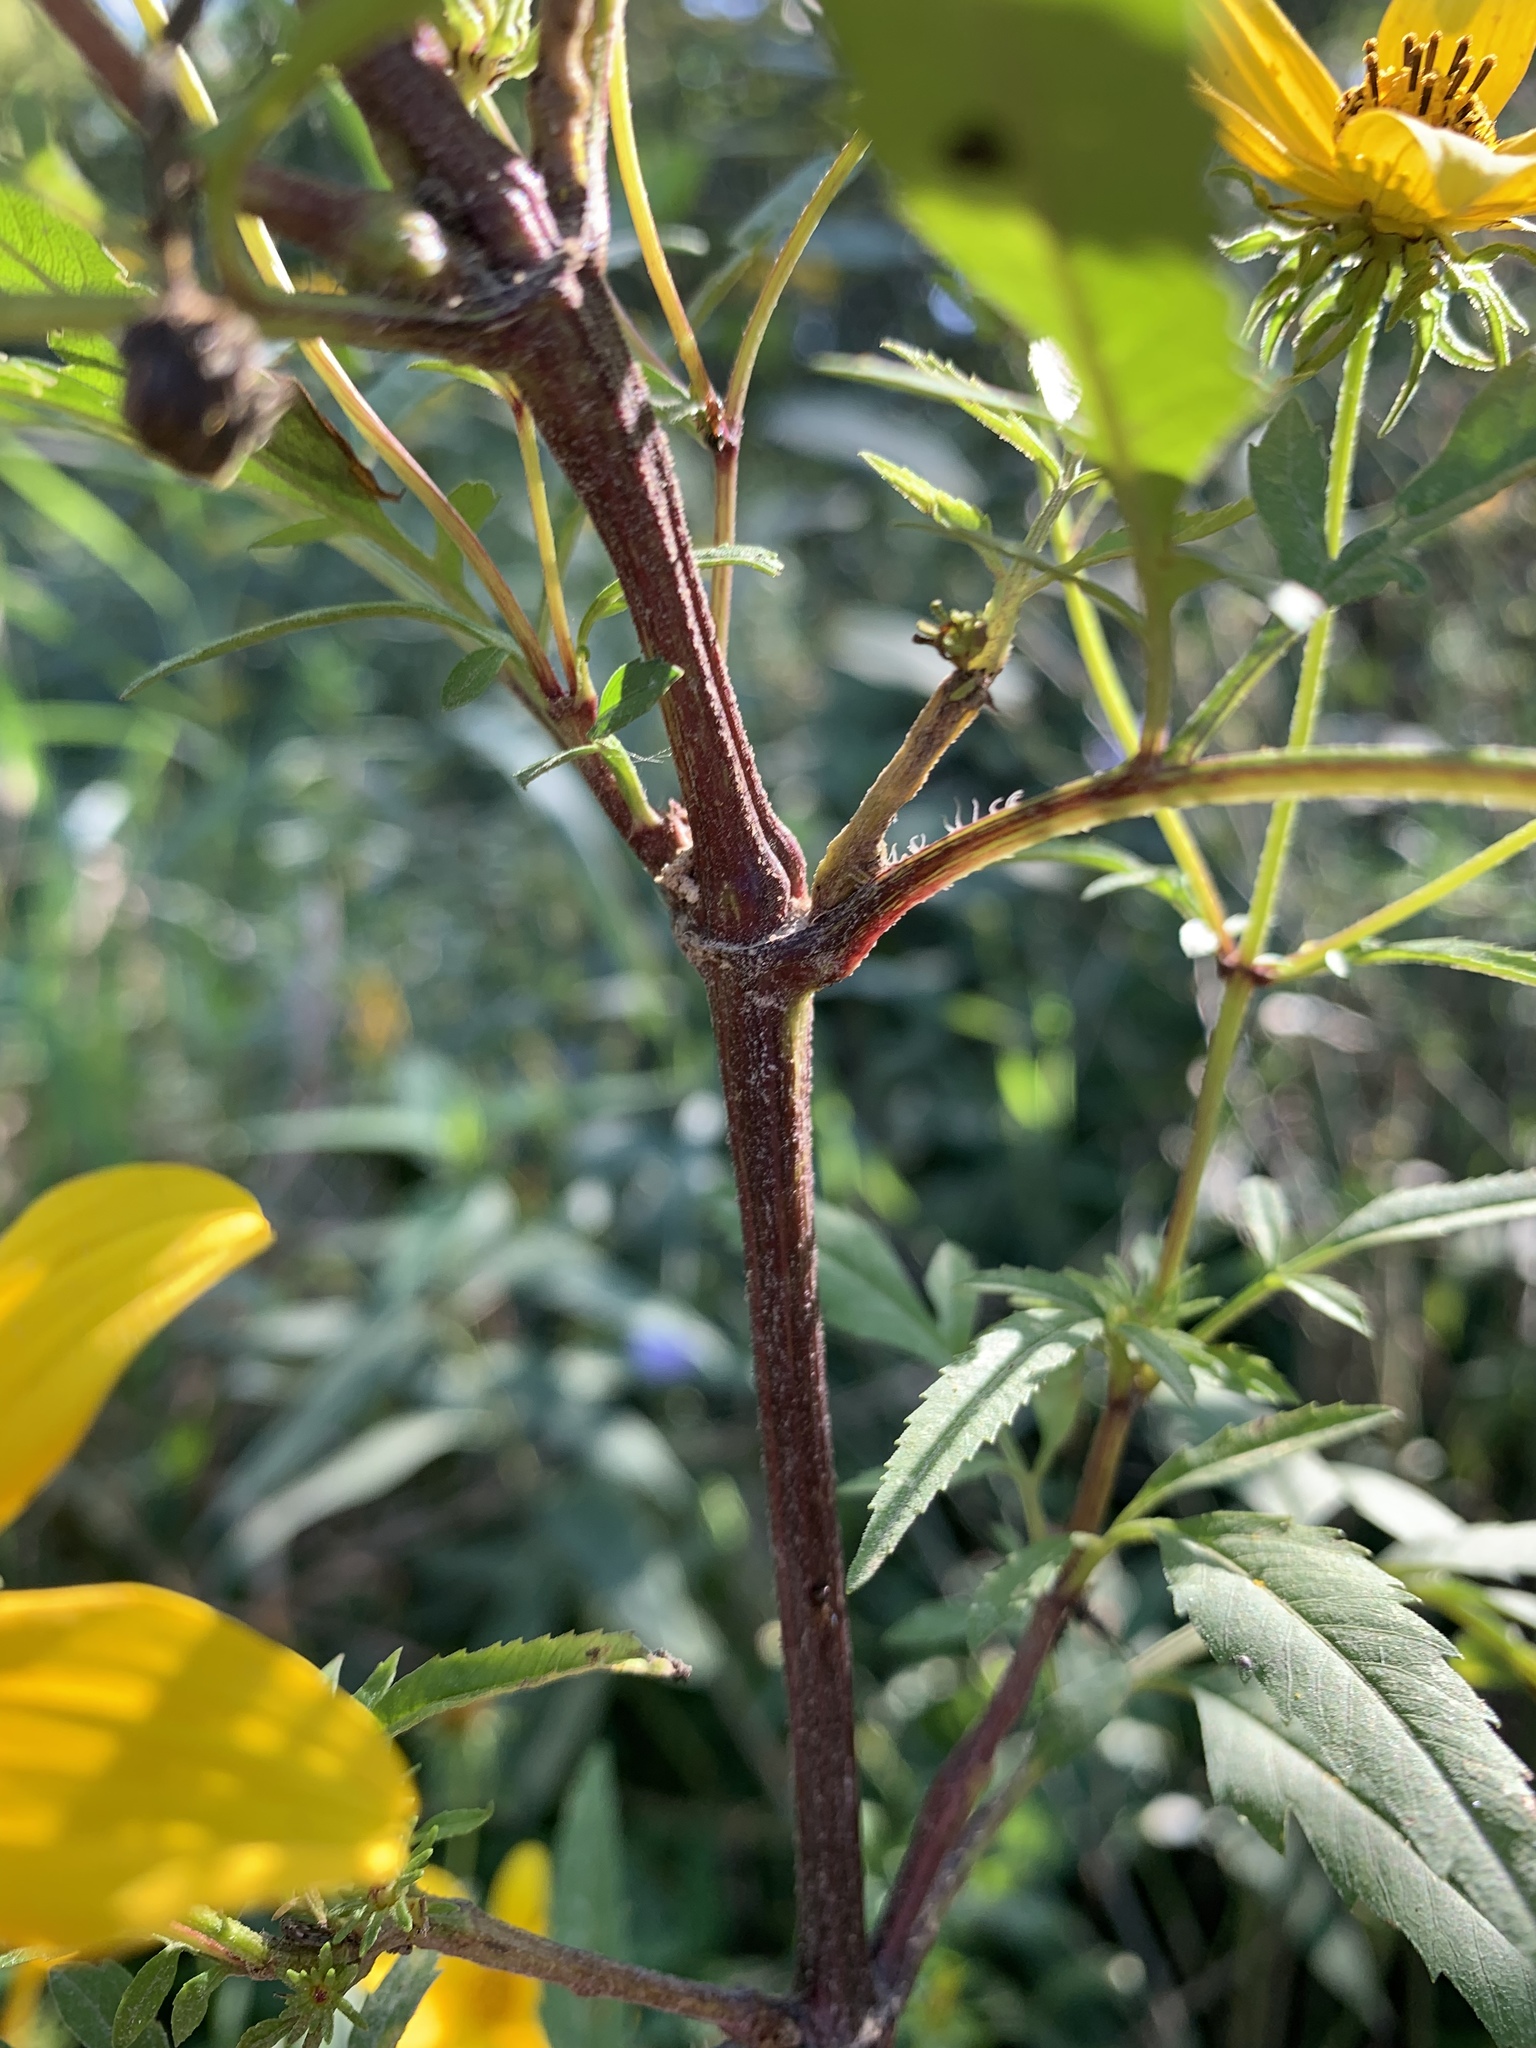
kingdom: Plantae
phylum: Tracheophyta
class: Magnoliopsida
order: Asterales
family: Asteraceae
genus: Bidens
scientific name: Bidens aristosa
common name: Western tickseed
